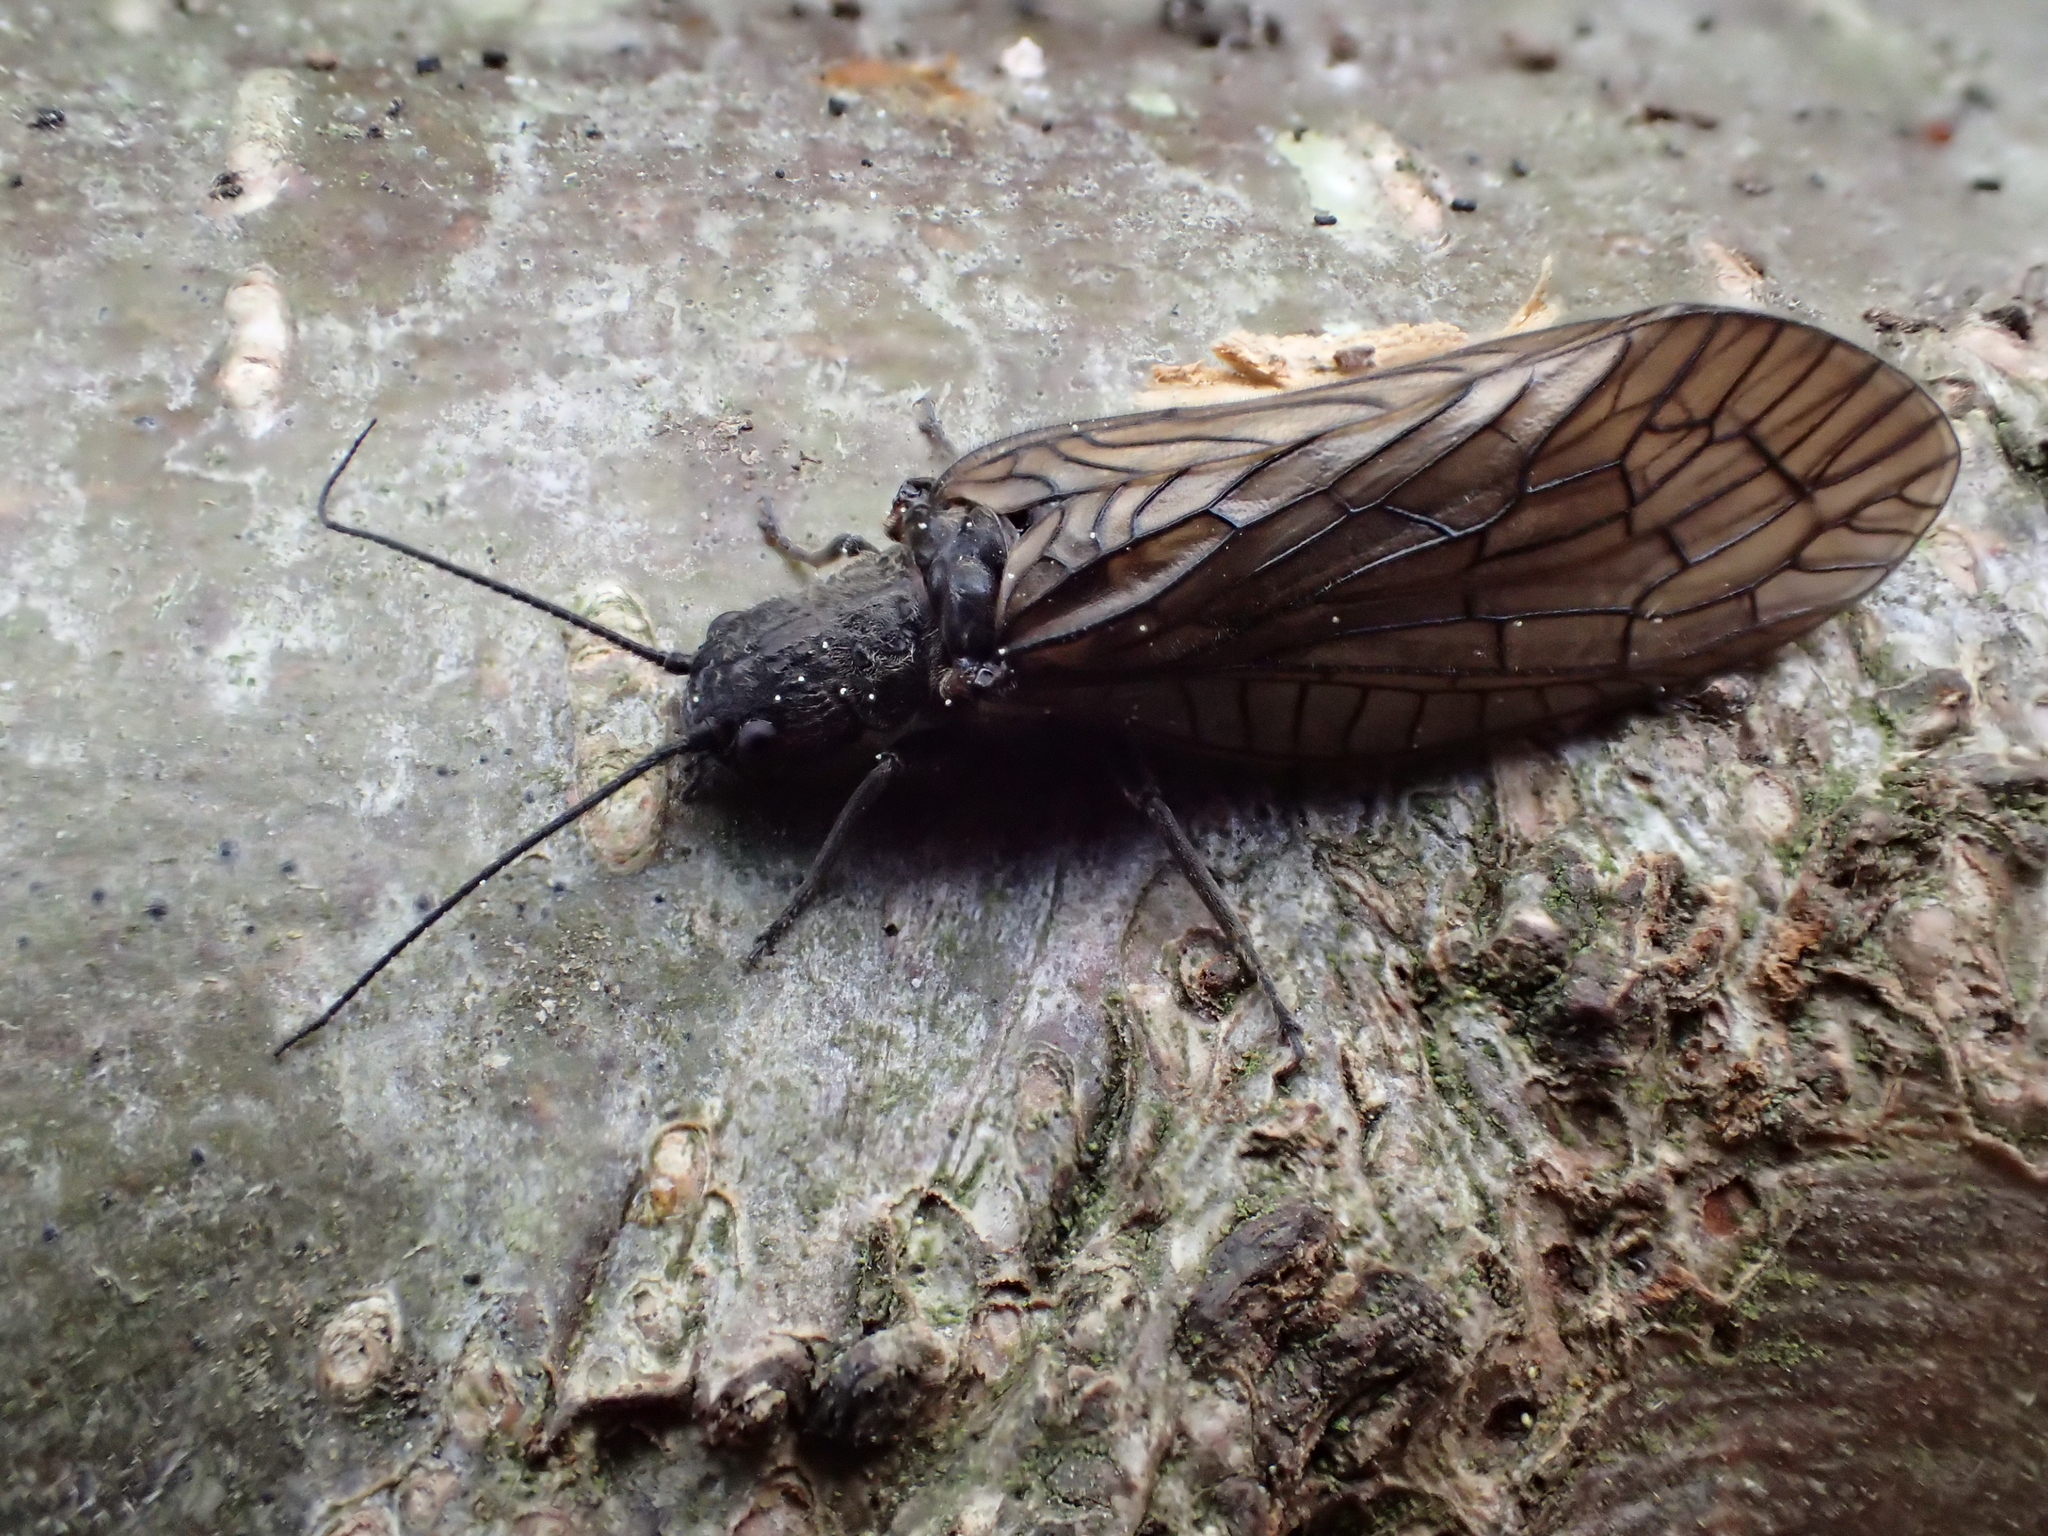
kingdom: Animalia
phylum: Arthropoda
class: Insecta
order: Megaloptera
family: Sialidae
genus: Sialis
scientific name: Sialis
